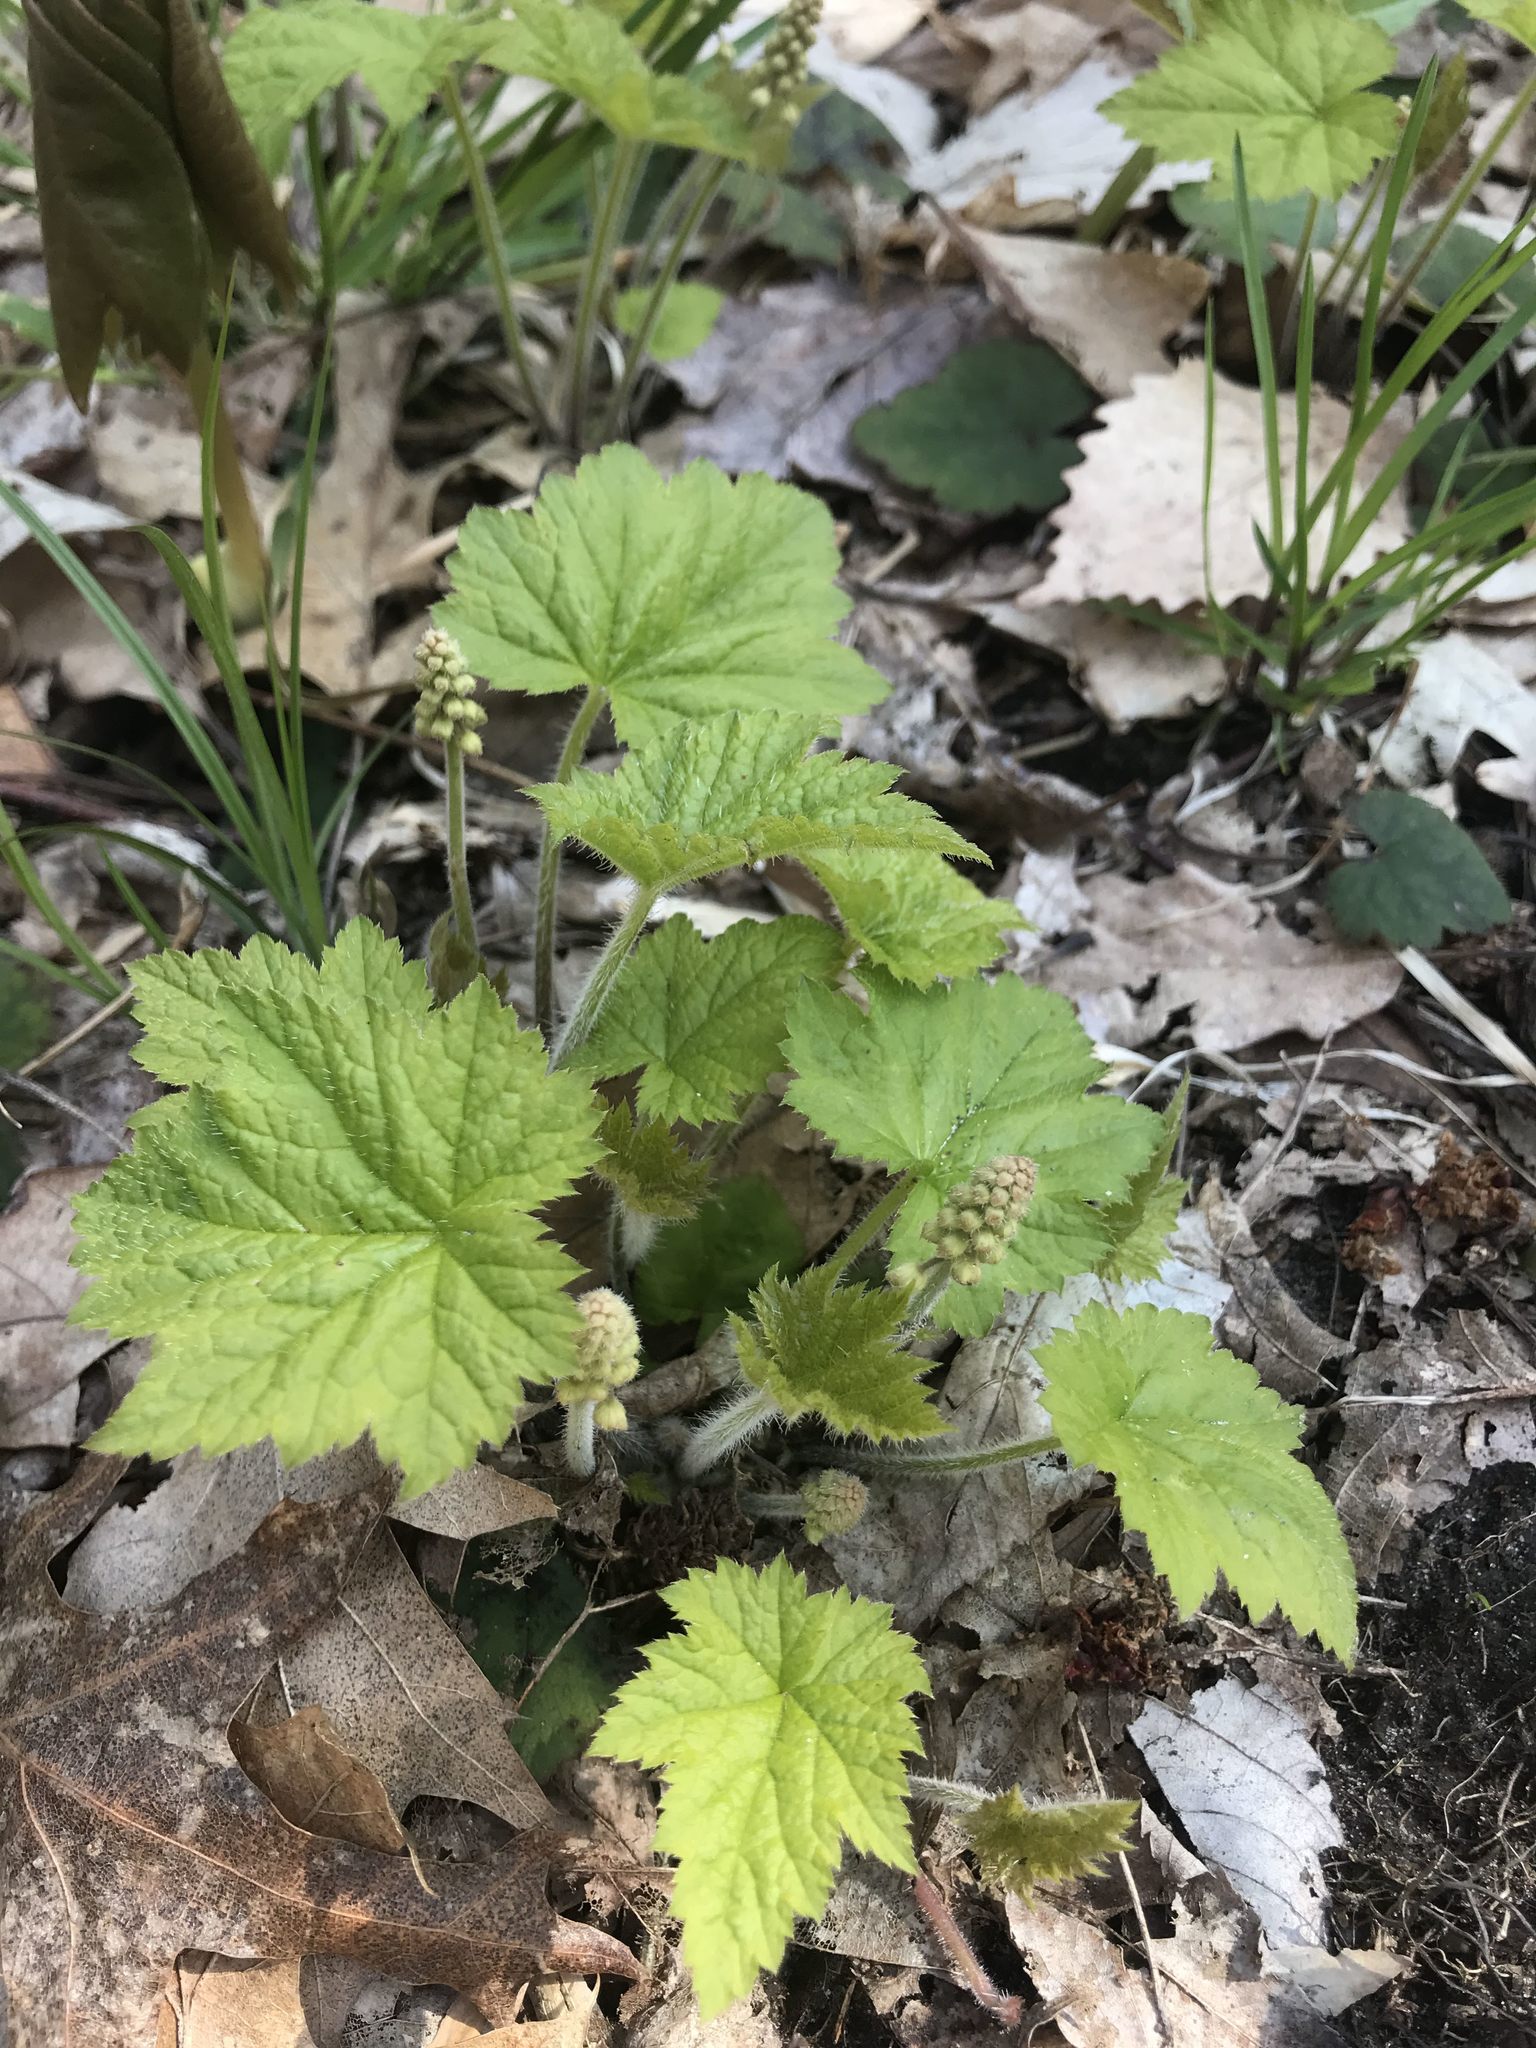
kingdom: Plantae
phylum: Tracheophyta
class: Magnoliopsida
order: Saxifragales
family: Saxifragaceae
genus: Tiarella
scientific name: Tiarella stolonifera
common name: Stoloniferous foamflower
